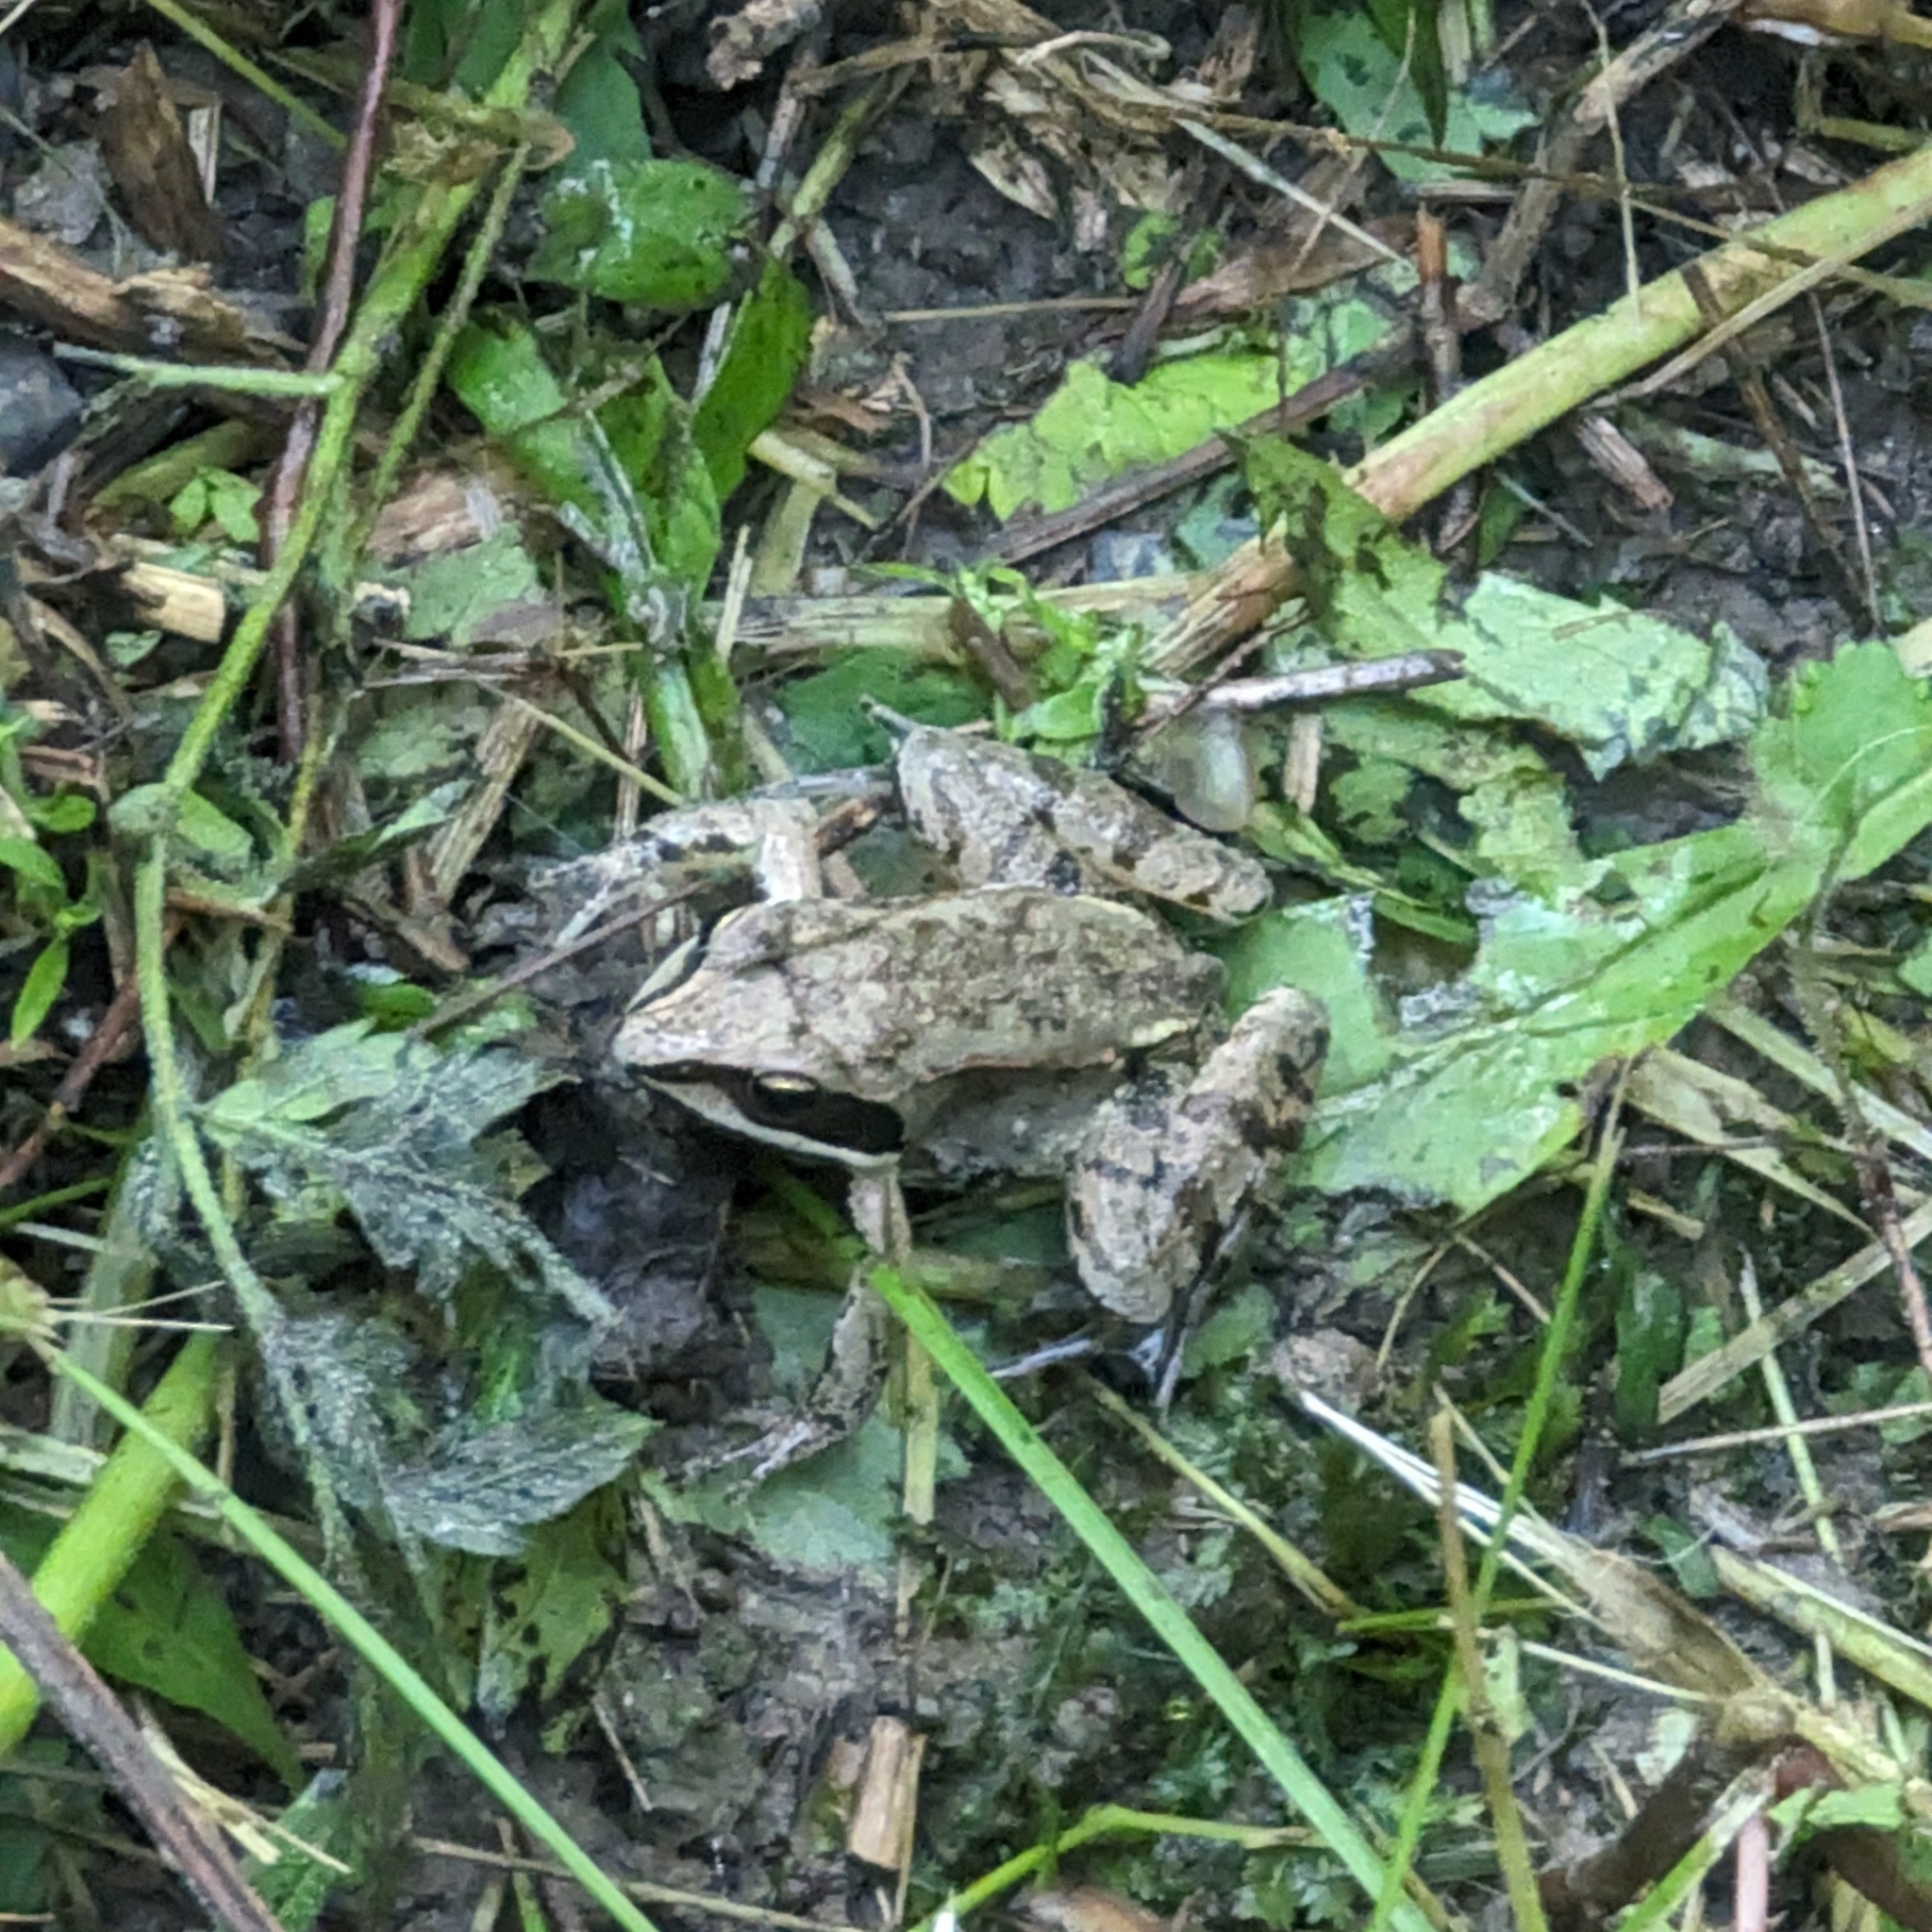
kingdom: Animalia
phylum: Chordata
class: Amphibia
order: Anura
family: Ranidae
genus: Lithobates
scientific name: Lithobates sylvaticus
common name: Wood frog
